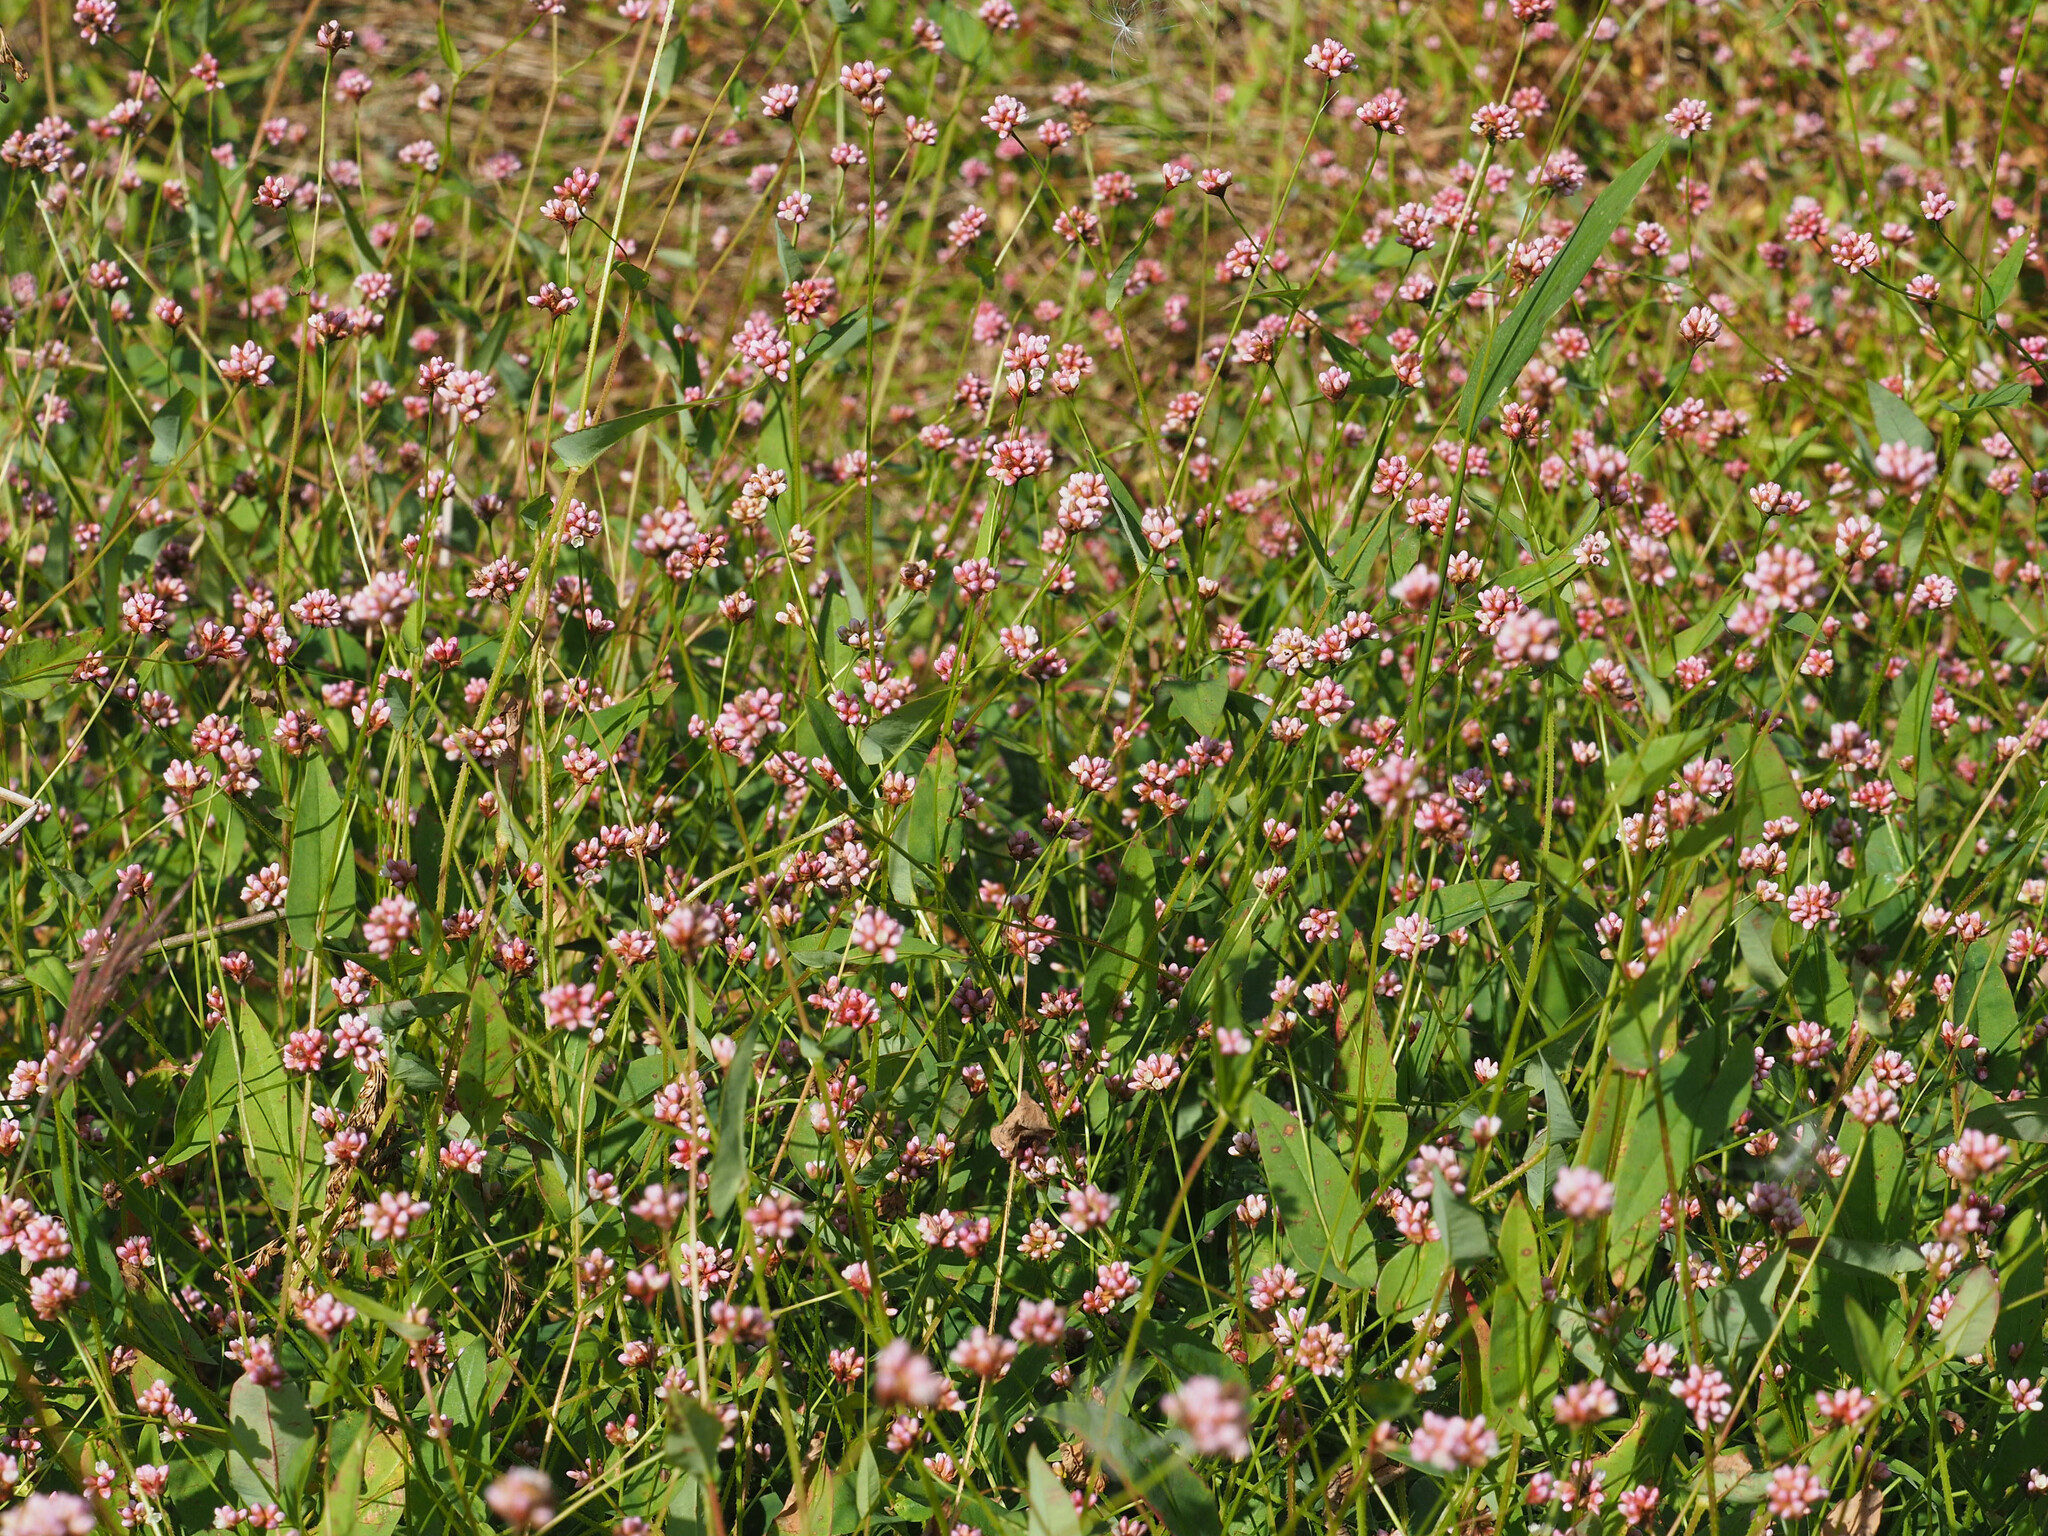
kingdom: Plantae
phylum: Tracheophyta
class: Magnoliopsida
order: Caryophyllales
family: Polygonaceae
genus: Persicaria
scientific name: Persicaria sagittata
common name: American tearthumb
